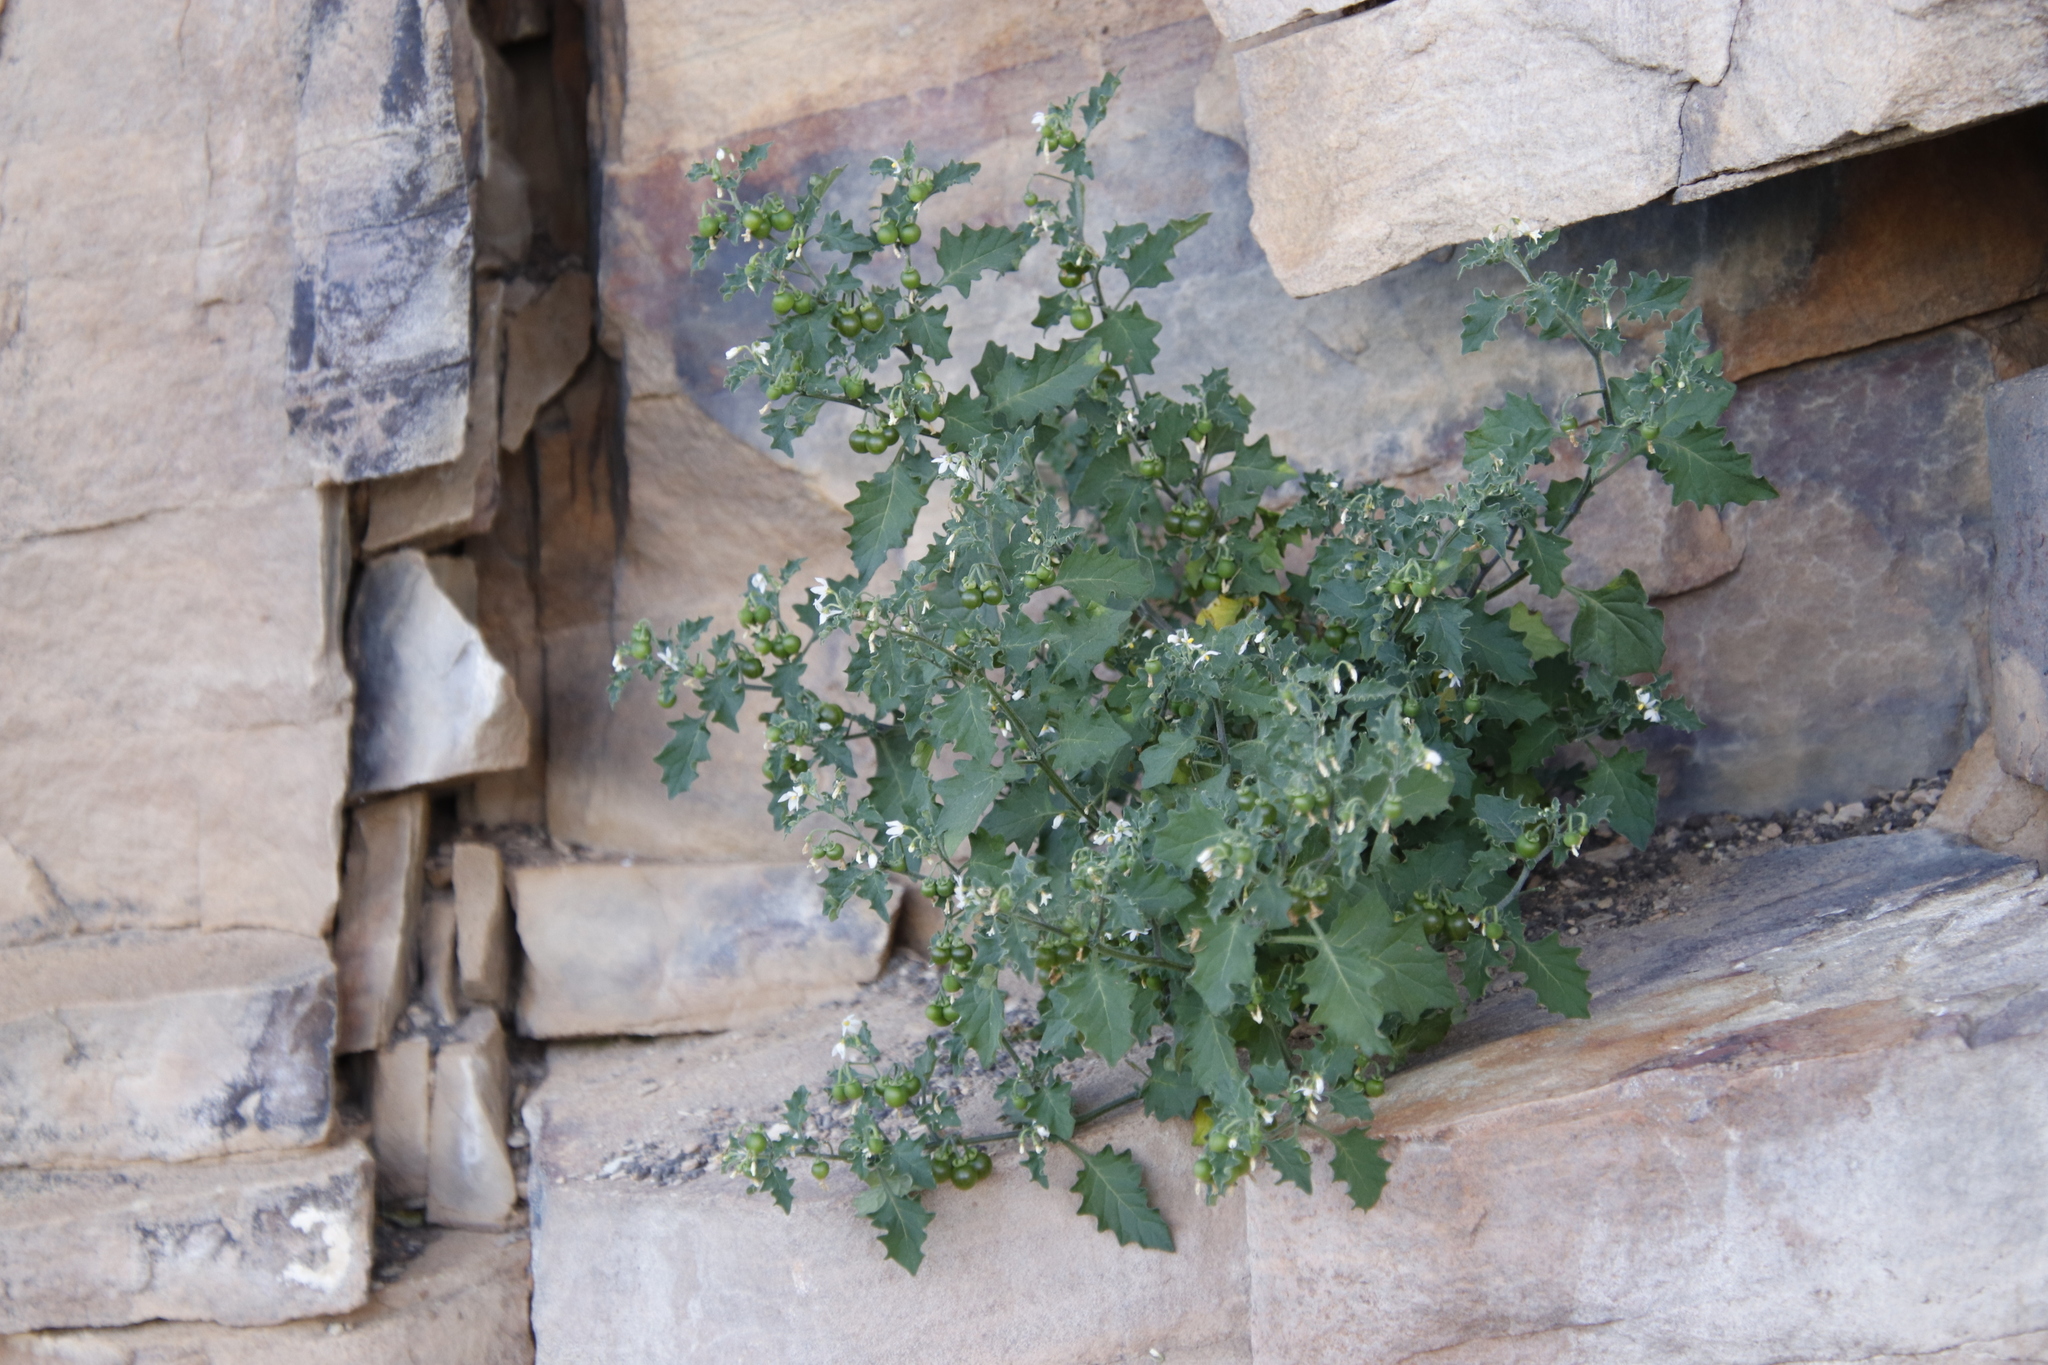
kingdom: Plantae
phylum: Tracheophyta
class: Magnoliopsida
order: Solanales
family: Solanaceae
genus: Solanum
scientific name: Solanum retroflexum
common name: Wonderberry
